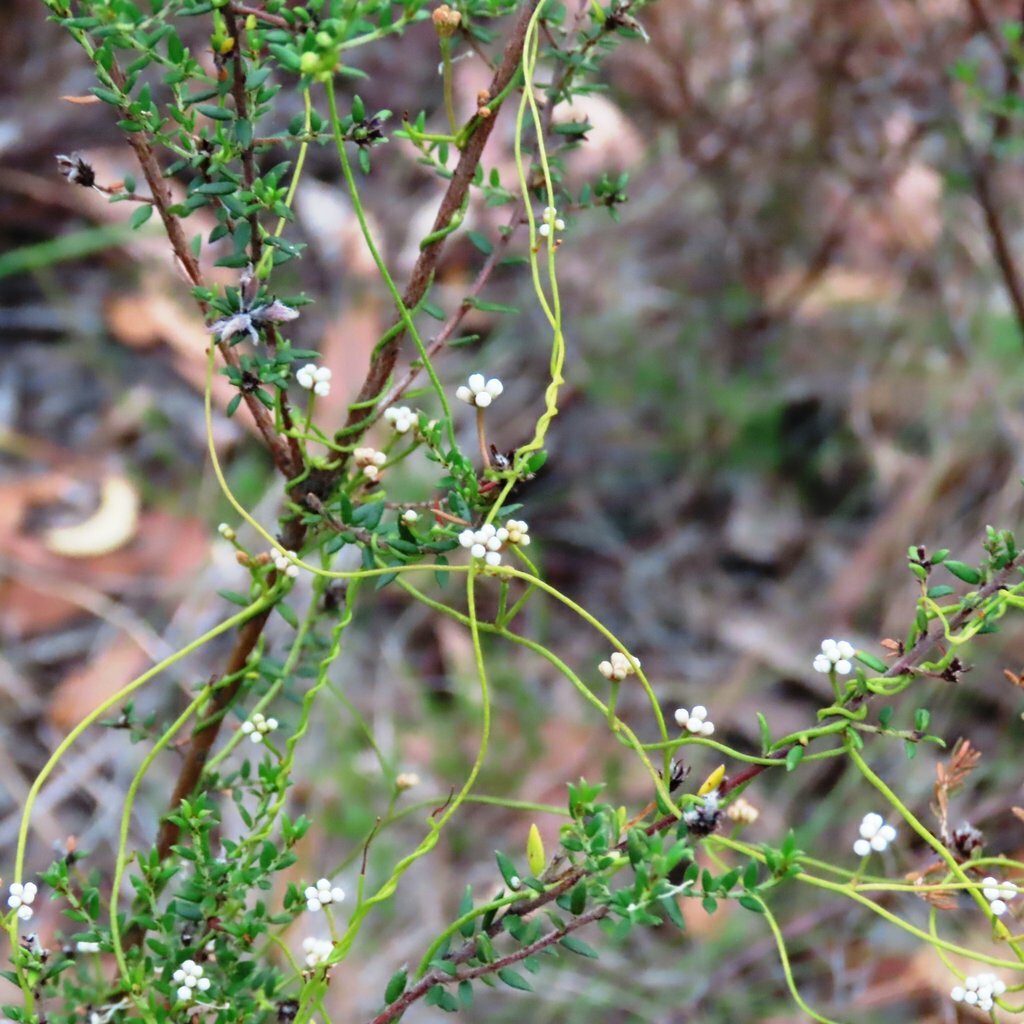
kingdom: Plantae
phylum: Tracheophyta
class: Magnoliopsida
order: Laurales
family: Lauraceae
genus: Cassytha
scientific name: Cassytha glabella
